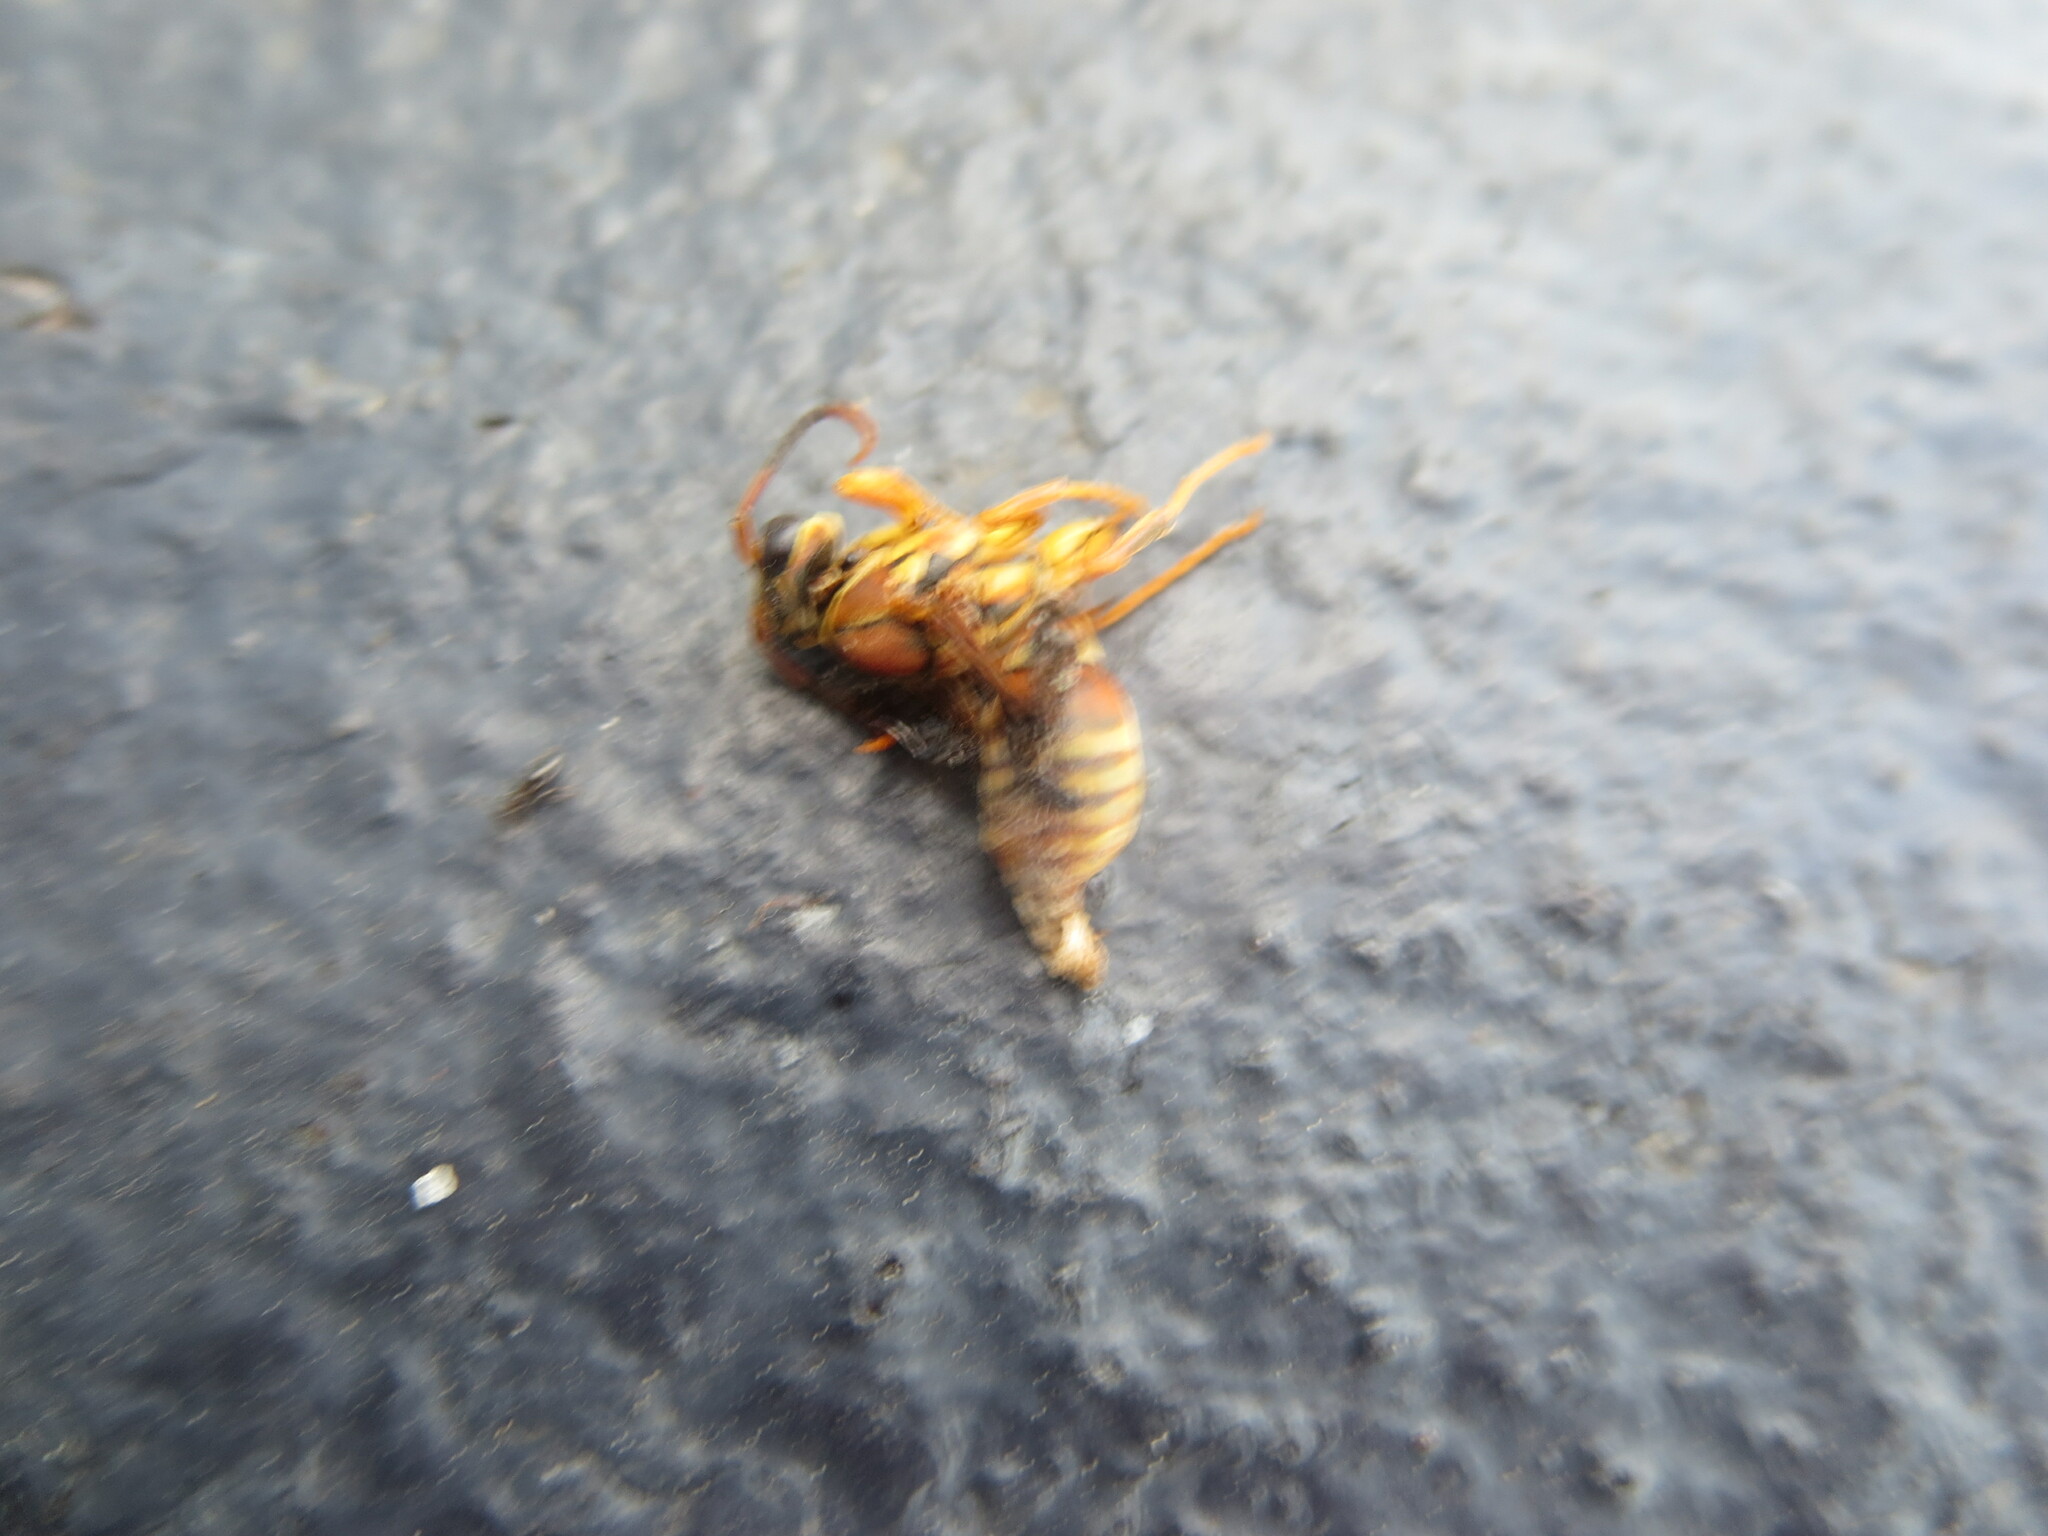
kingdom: Animalia
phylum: Arthropoda
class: Insecta
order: Hymenoptera
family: Eumenidae
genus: Polistes
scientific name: Polistes exclamans
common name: Paper wasp
